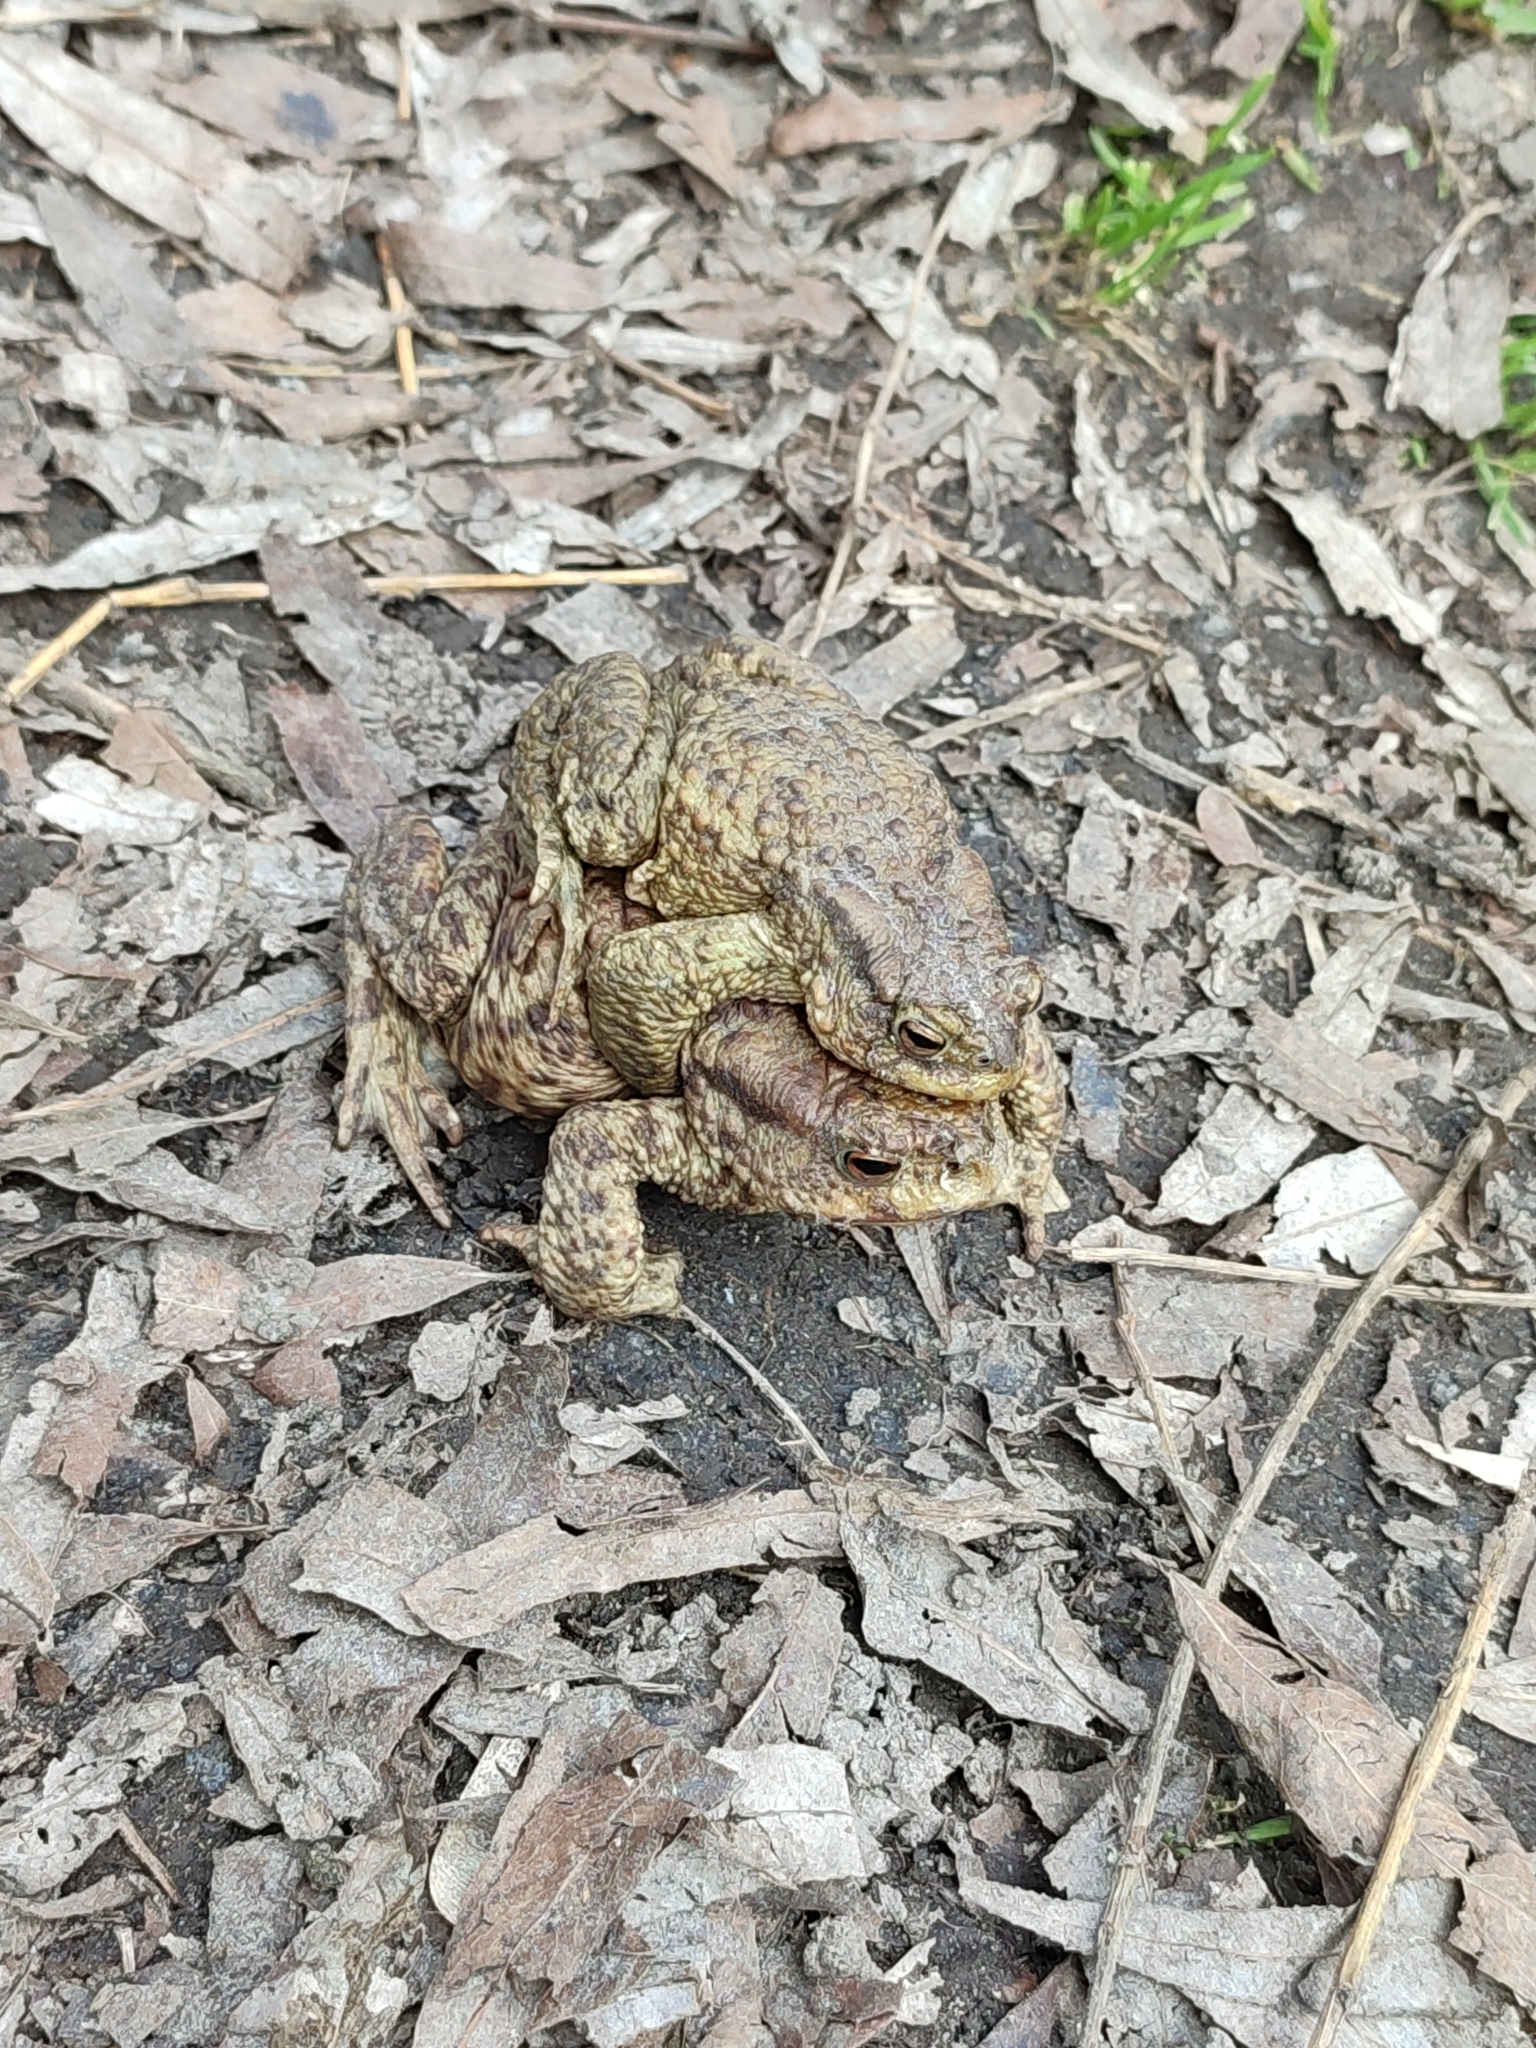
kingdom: Animalia
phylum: Chordata
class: Amphibia
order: Anura
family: Bufonidae
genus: Bufo
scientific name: Bufo bufo
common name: Common toad
